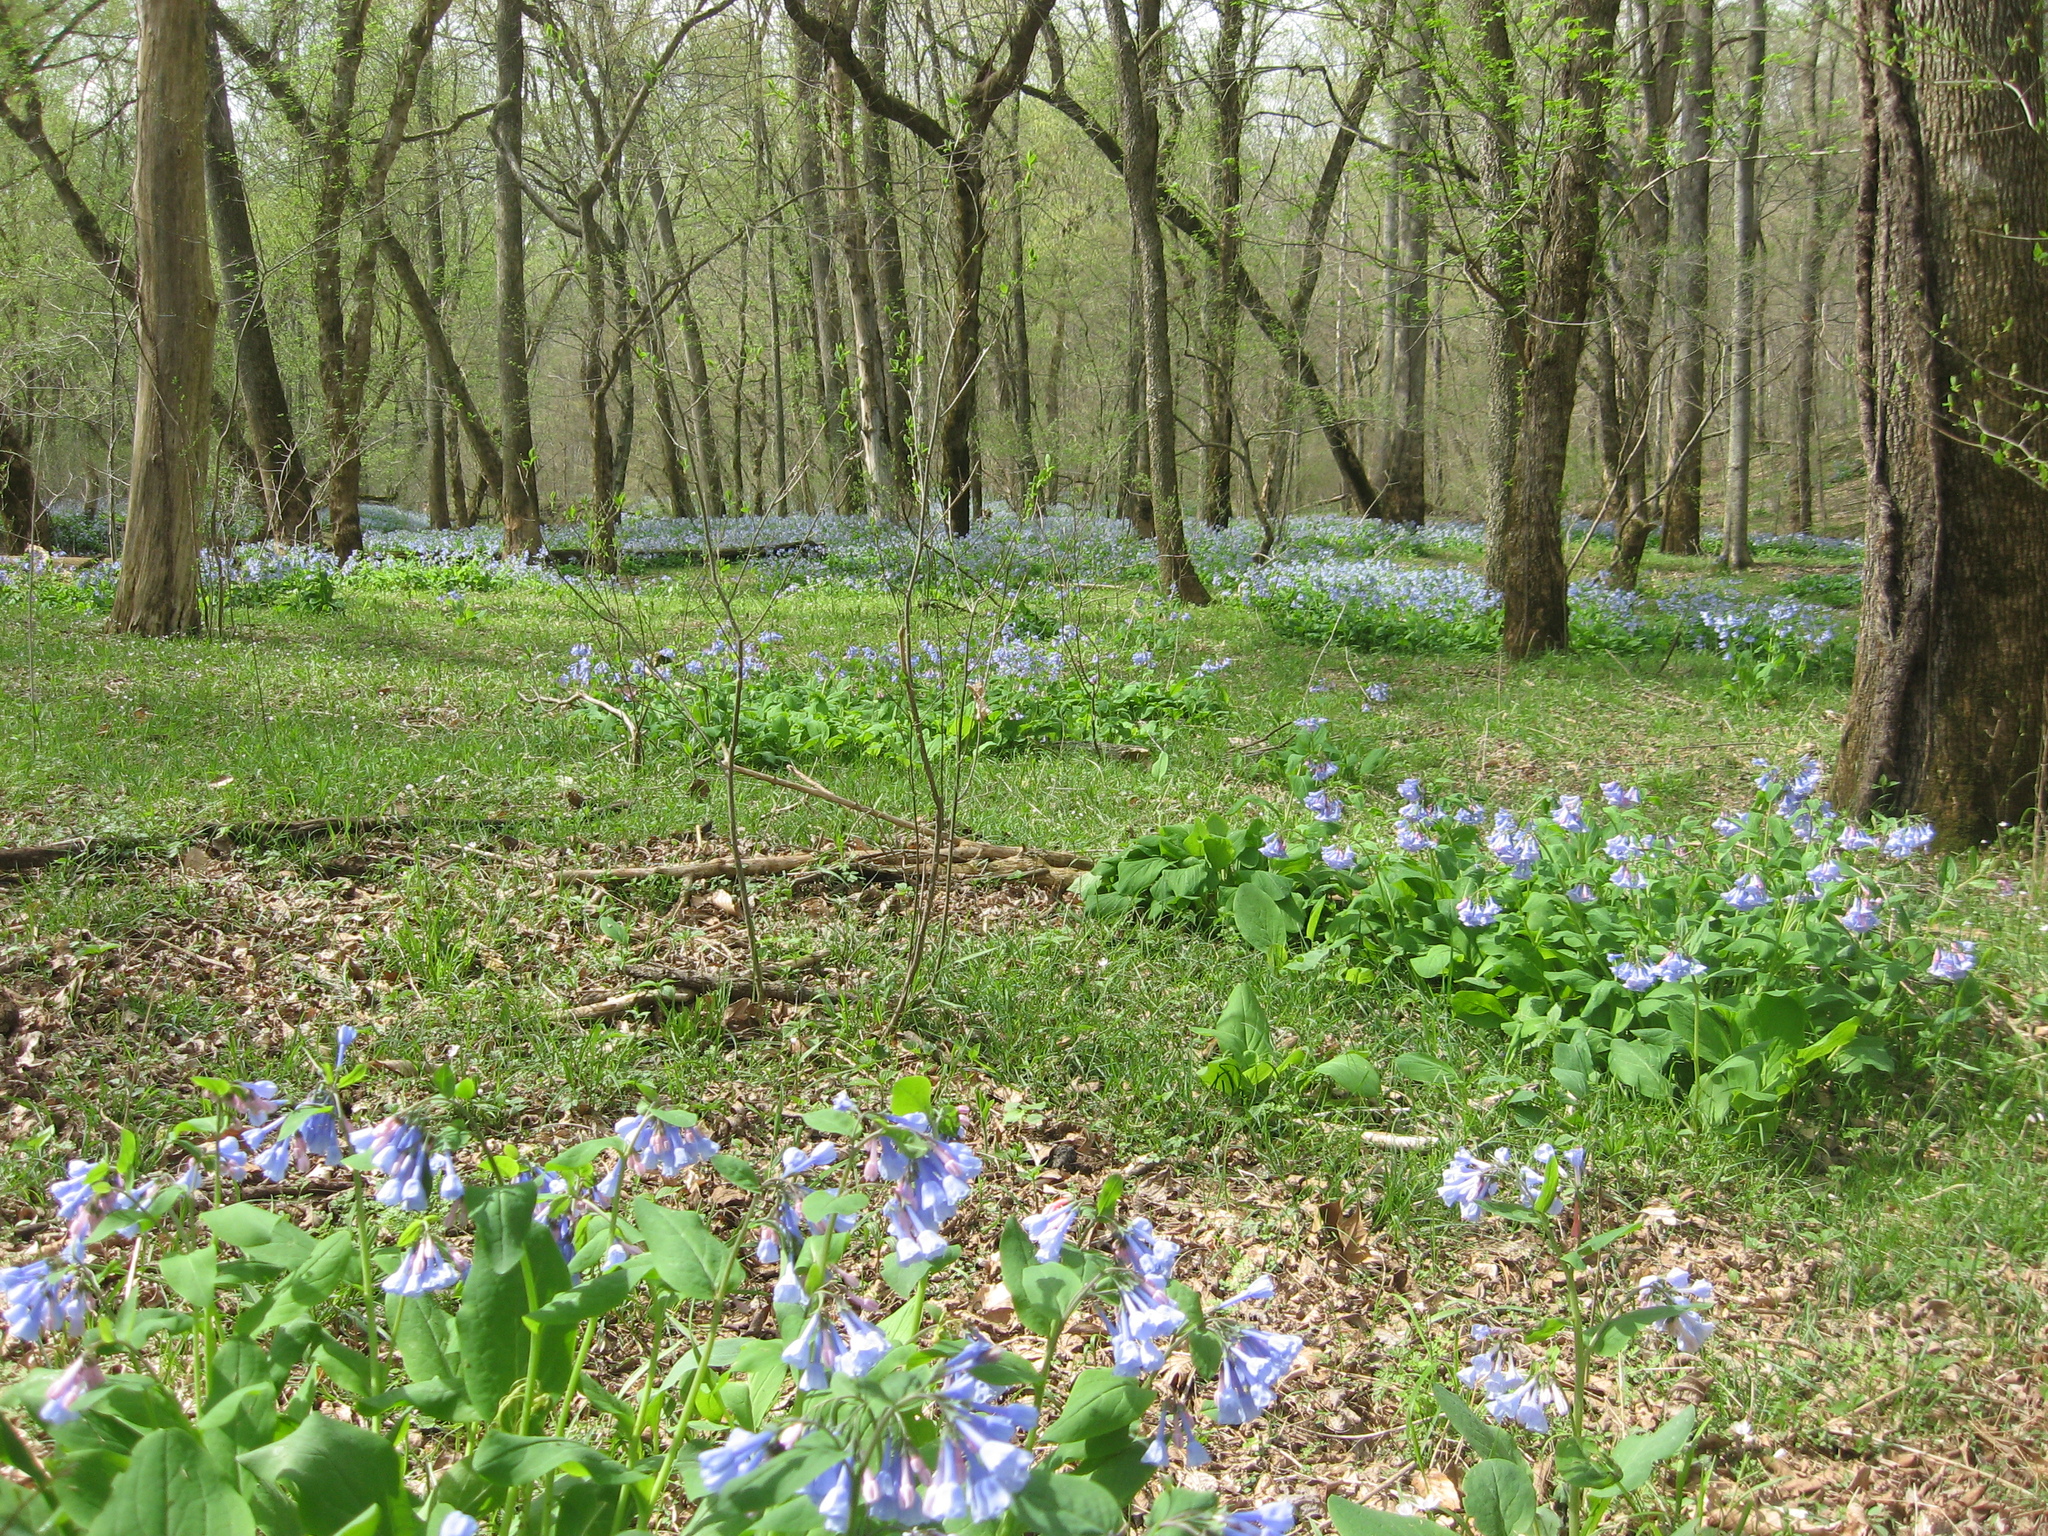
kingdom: Plantae
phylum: Tracheophyta
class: Magnoliopsida
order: Boraginales
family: Boraginaceae
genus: Mertensia
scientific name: Mertensia virginica
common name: Virginia bluebells
